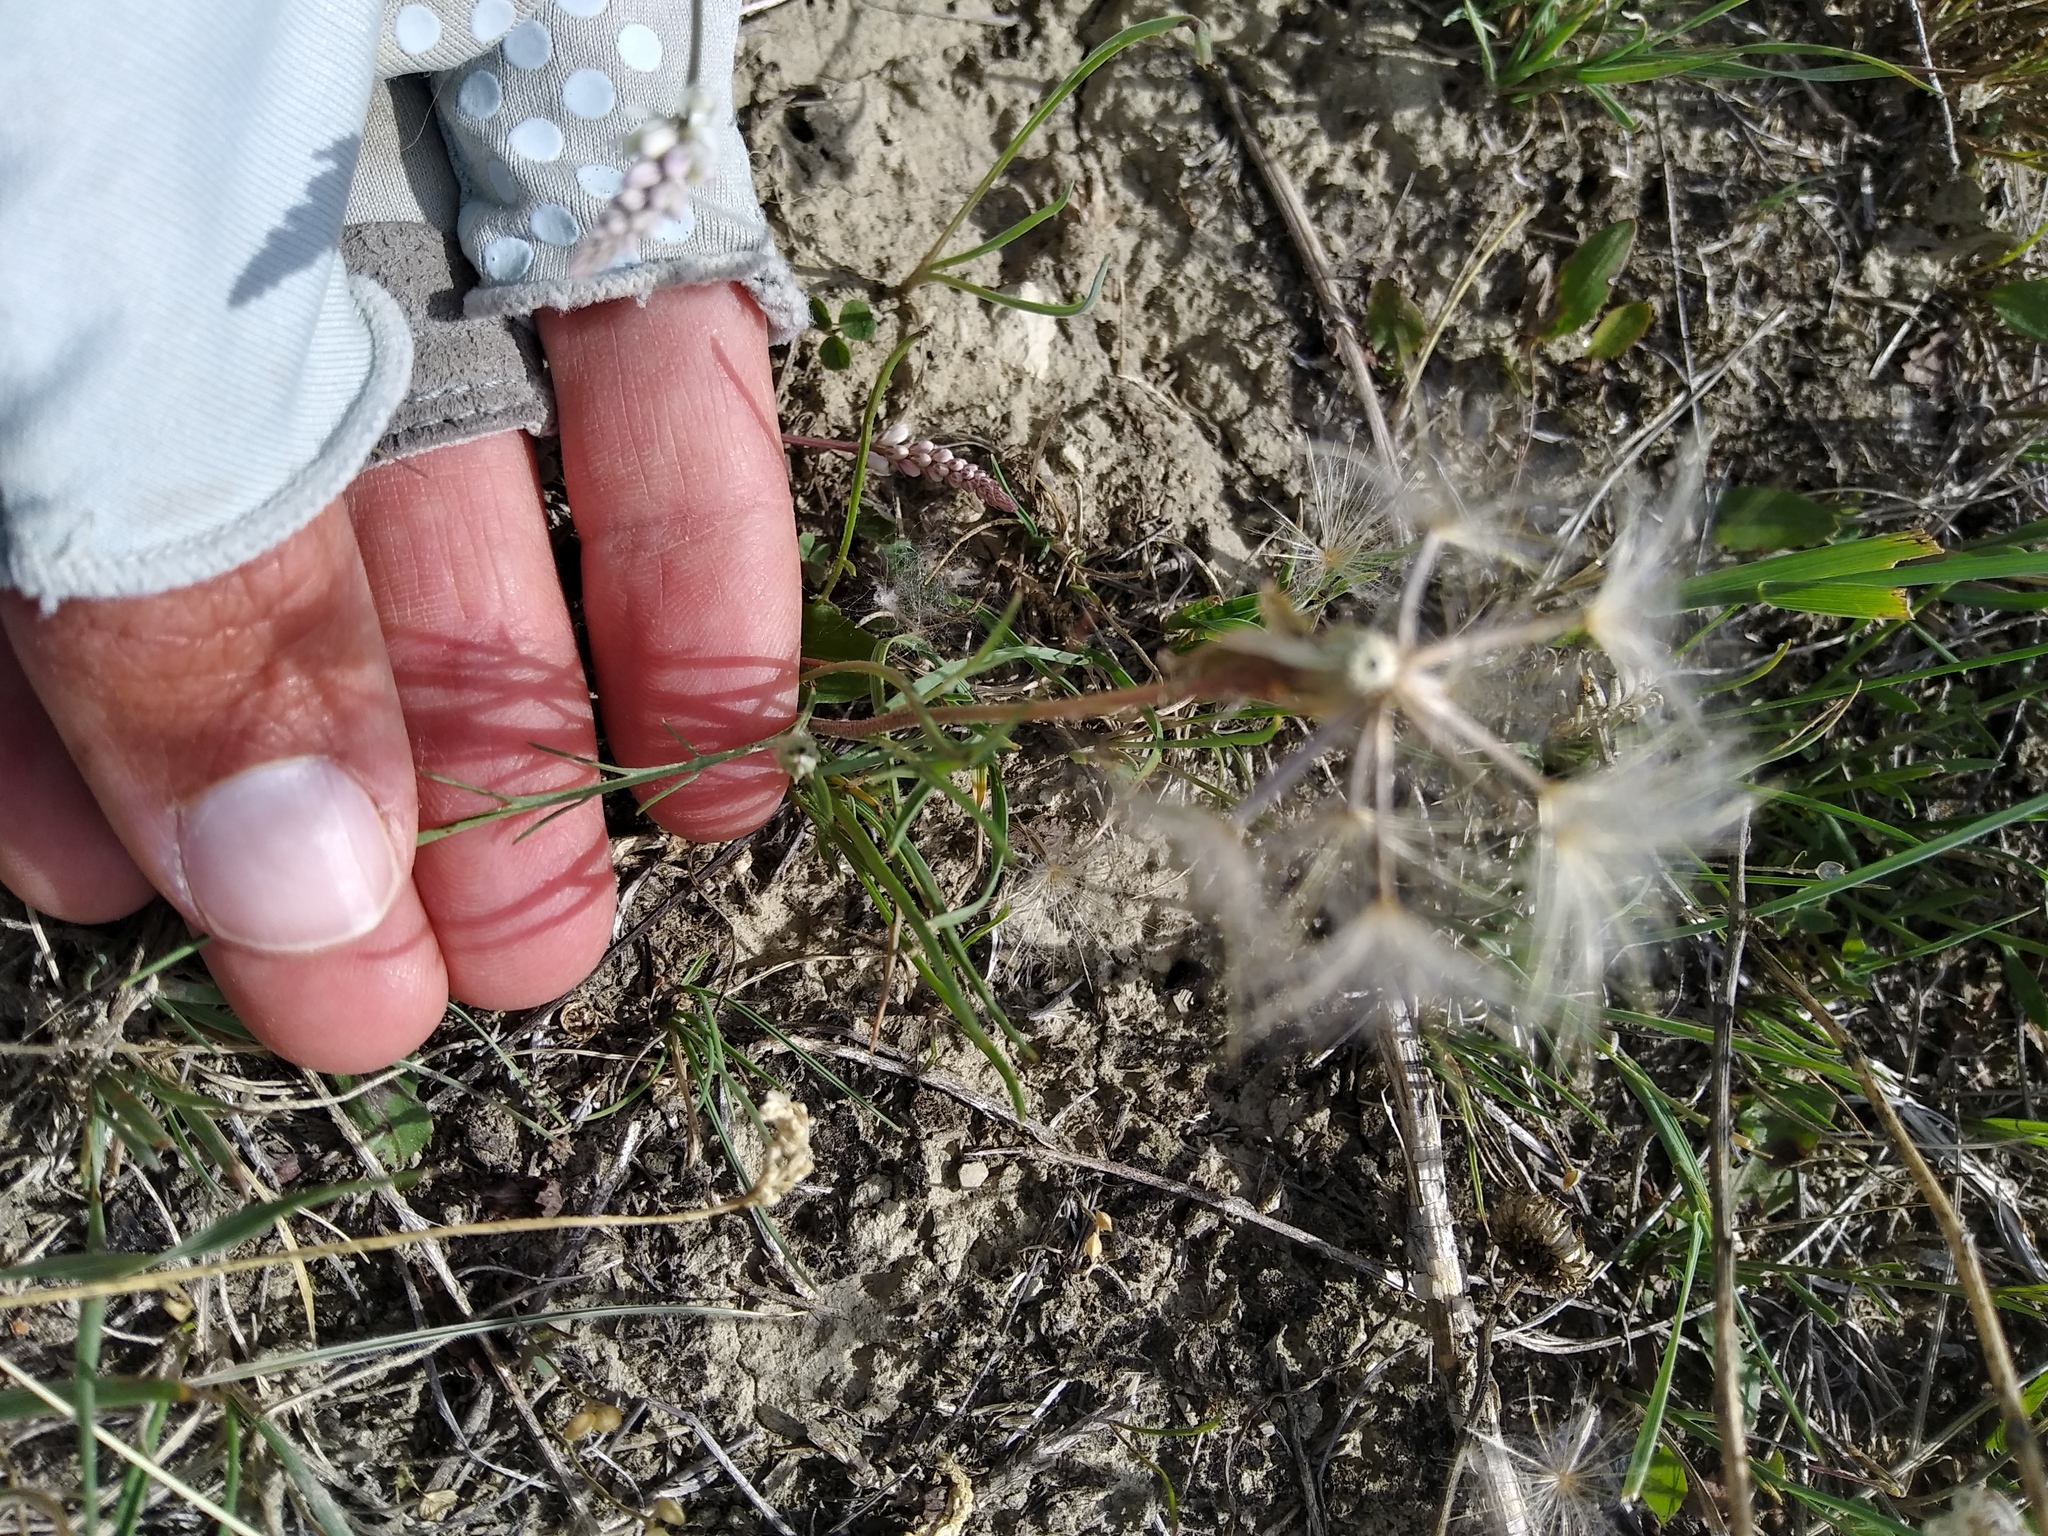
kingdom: Plantae
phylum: Tracheophyta
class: Magnoliopsida
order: Asterales
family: Asteraceae
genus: Scorzonera
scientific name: Scorzonera laciniata
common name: Cutleaf vipergrass
